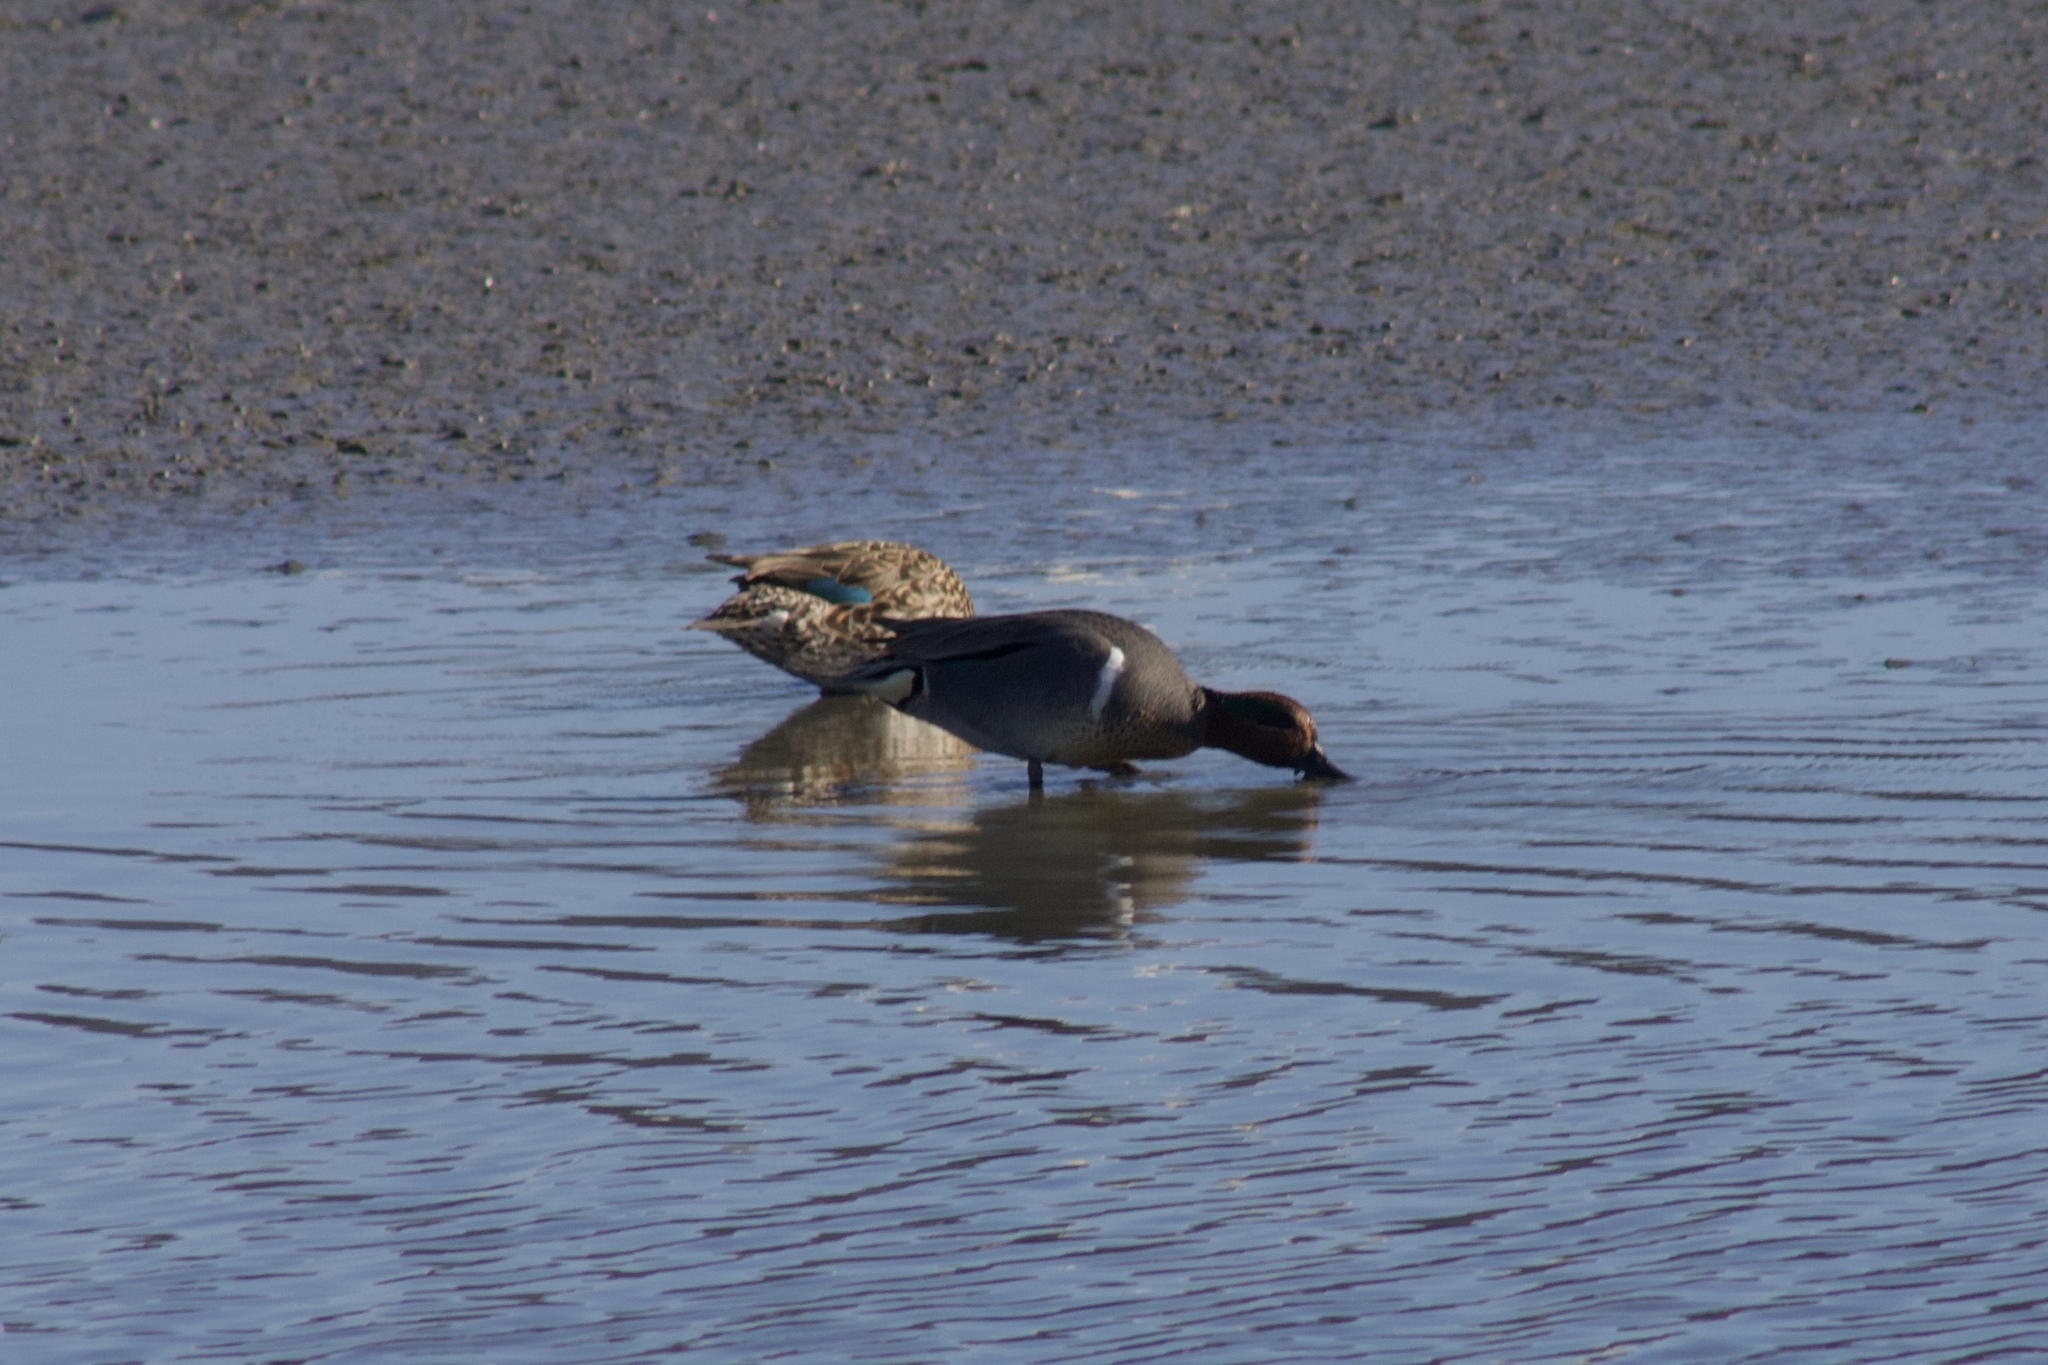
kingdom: Animalia
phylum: Chordata
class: Aves
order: Anseriformes
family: Anatidae
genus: Anas
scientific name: Anas crecca
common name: Eurasian teal
